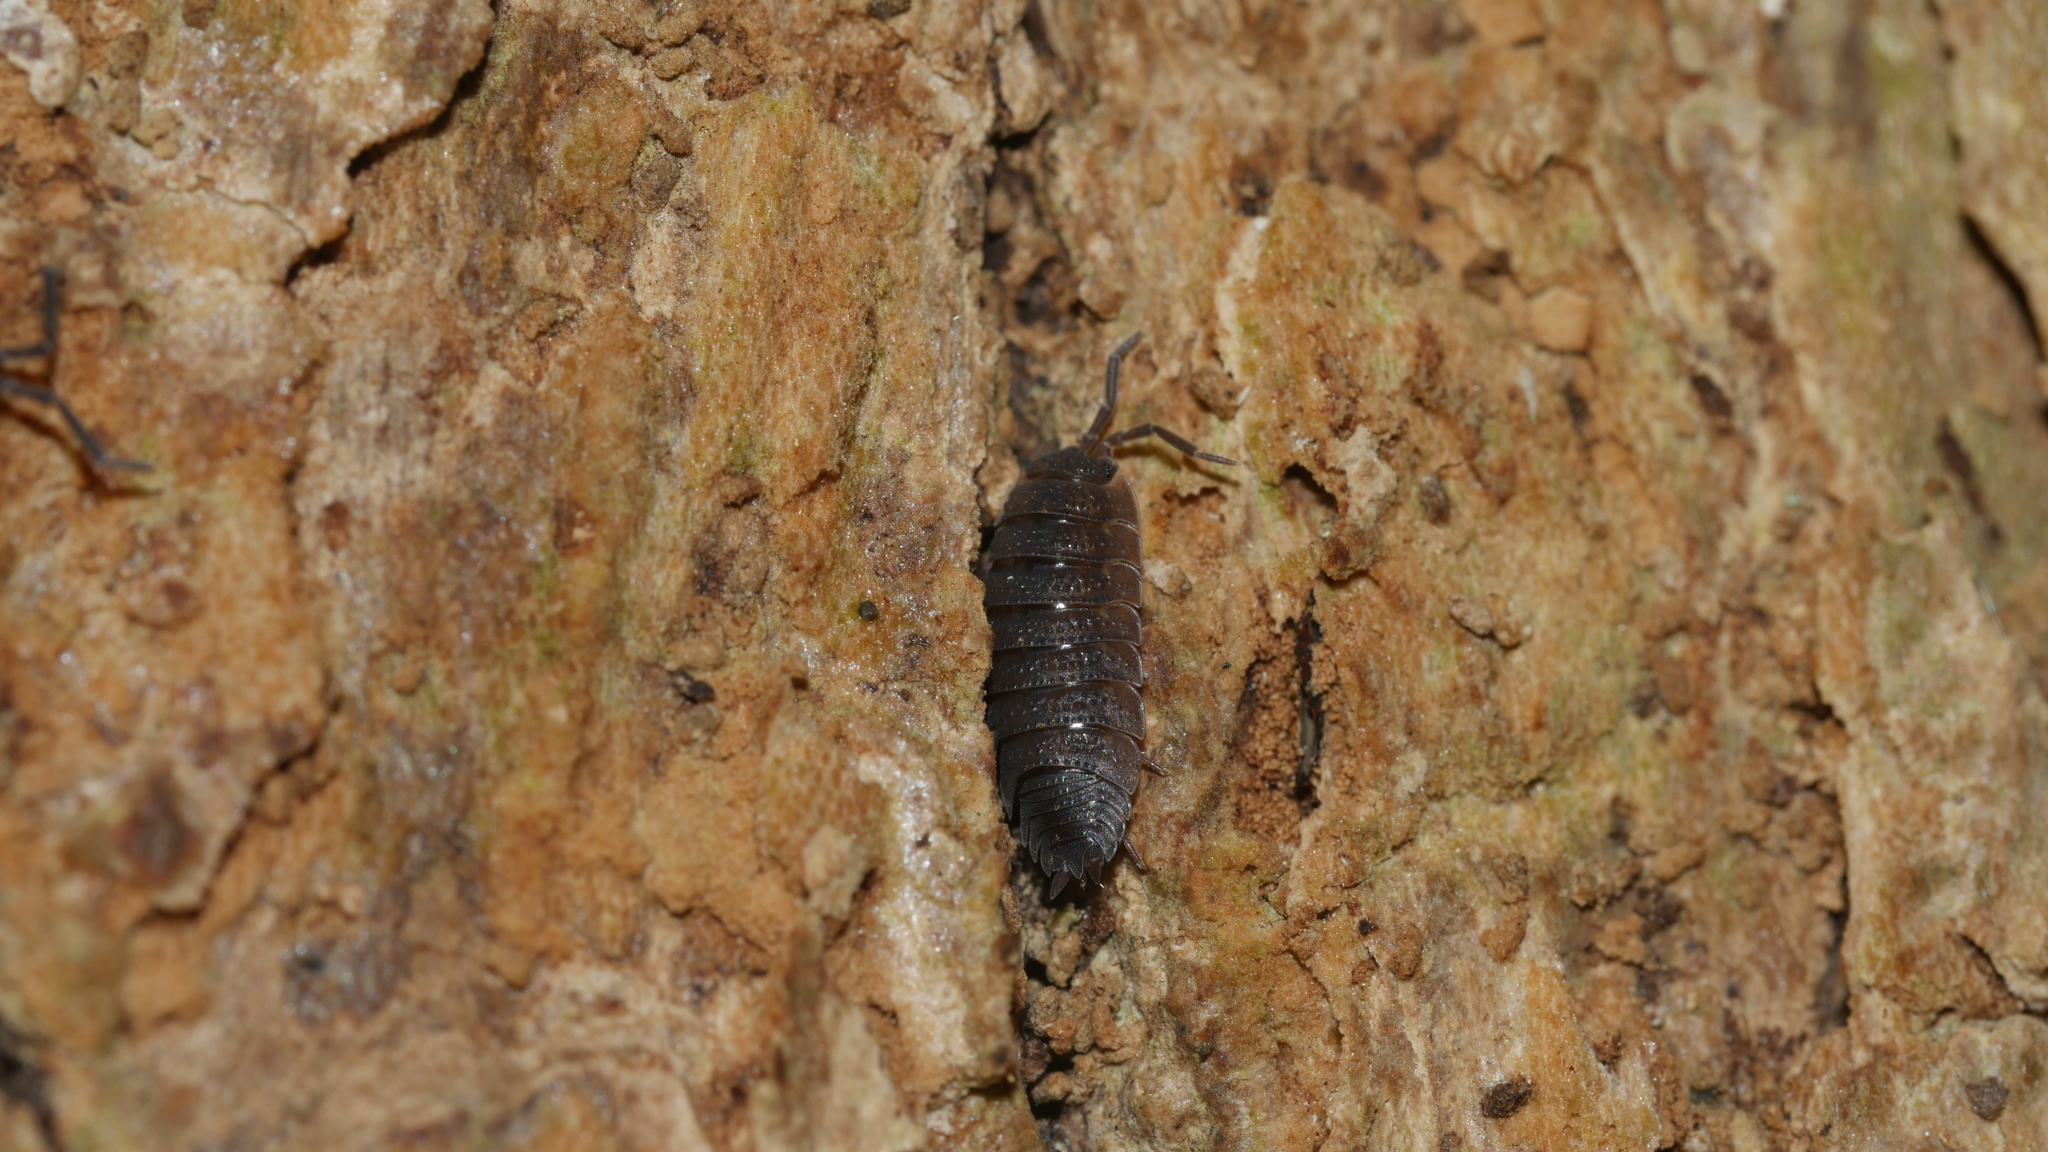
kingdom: Animalia
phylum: Arthropoda
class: Malacostraca
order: Isopoda
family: Porcellionidae
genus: Porcellio
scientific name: Porcellio scaber
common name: Common rough woodlouse
